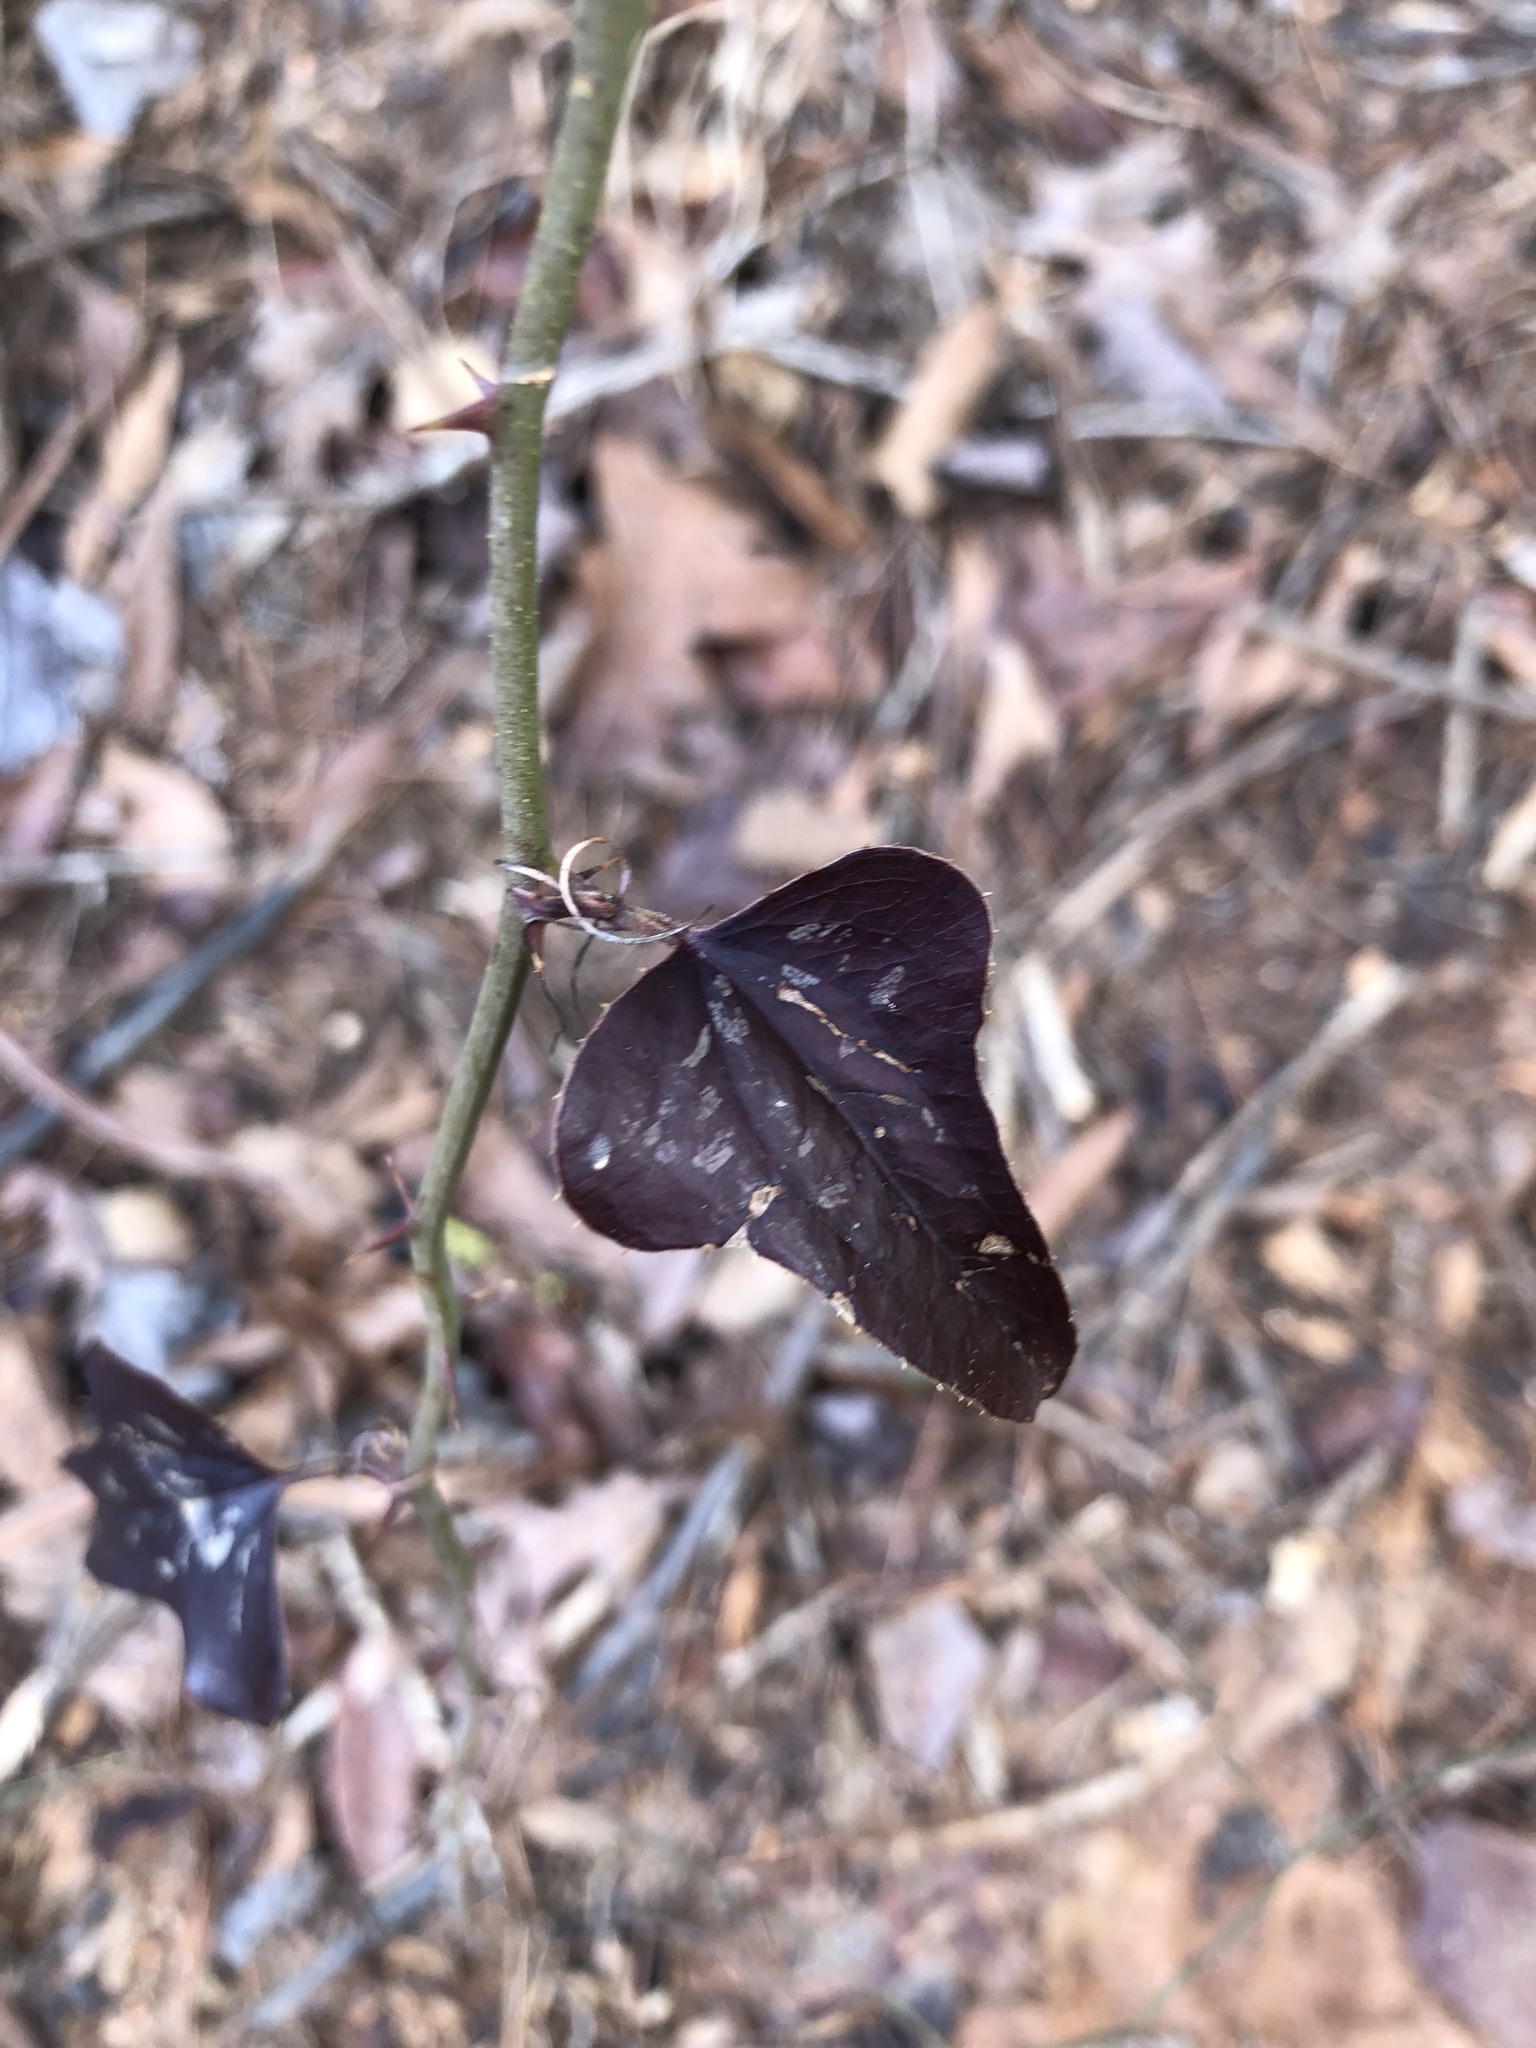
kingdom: Plantae
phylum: Tracheophyta
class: Liliopsida
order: Liliales
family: Smilacaceae
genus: Smilax
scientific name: Smilax bona-nox
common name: Catbrier
